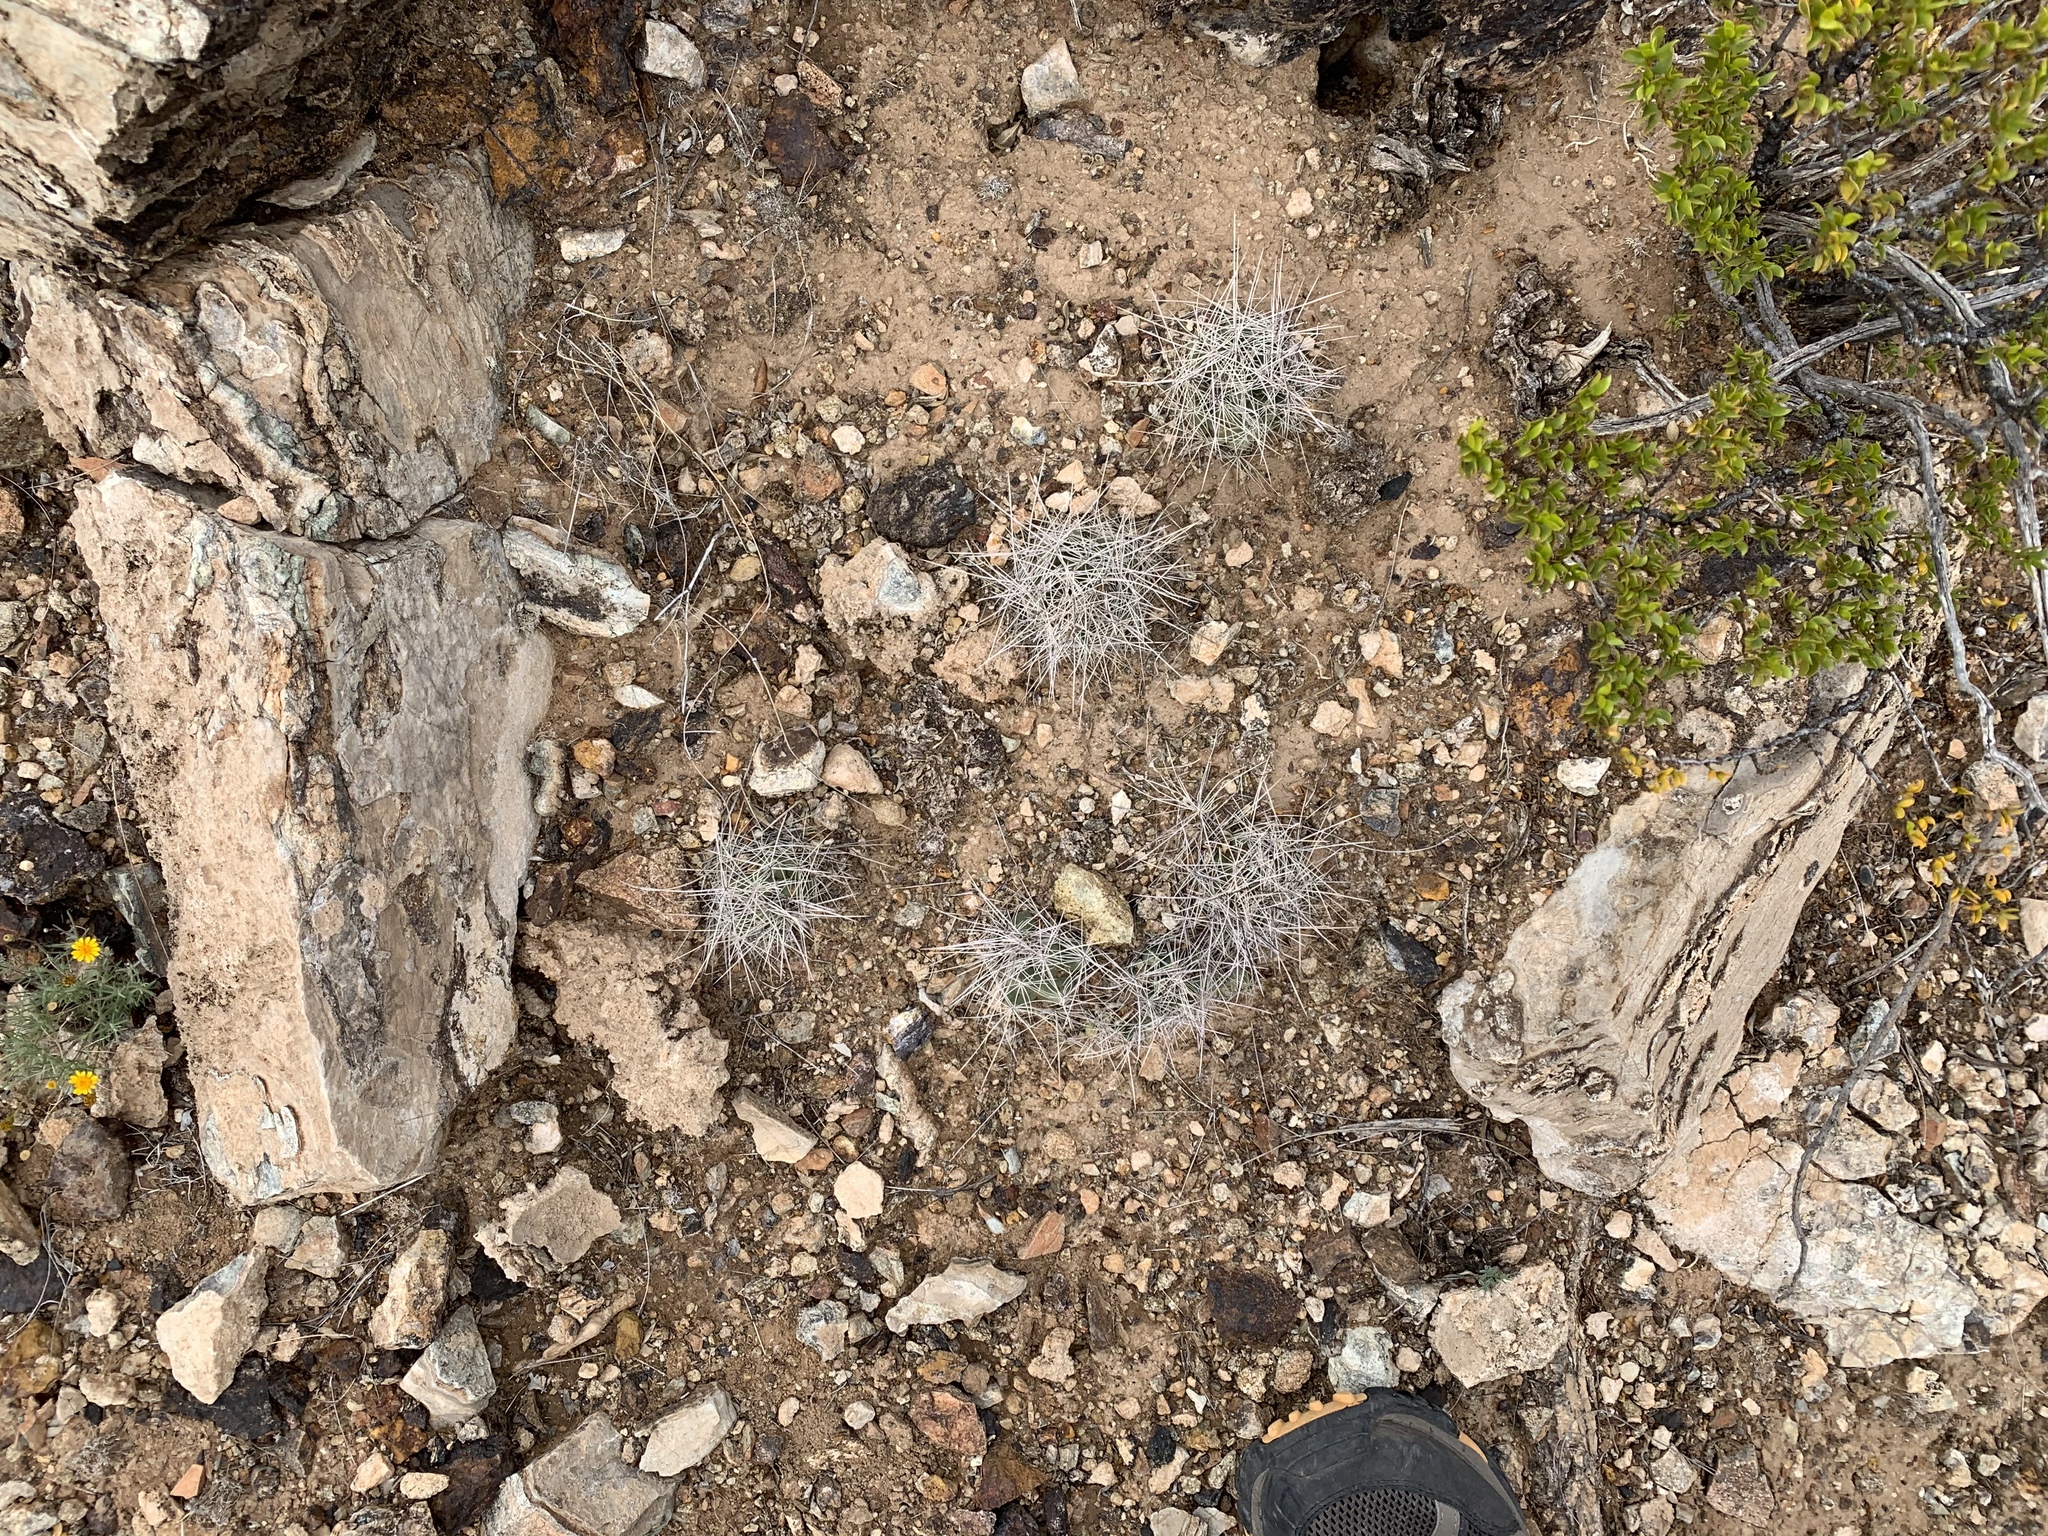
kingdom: Plantae
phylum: Tracheophyta
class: Magnoliopsida
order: Caryophyllales
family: Cactaceae
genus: Coryphantha
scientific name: Coryphantha macromeris
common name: Nipple beehive cactus
